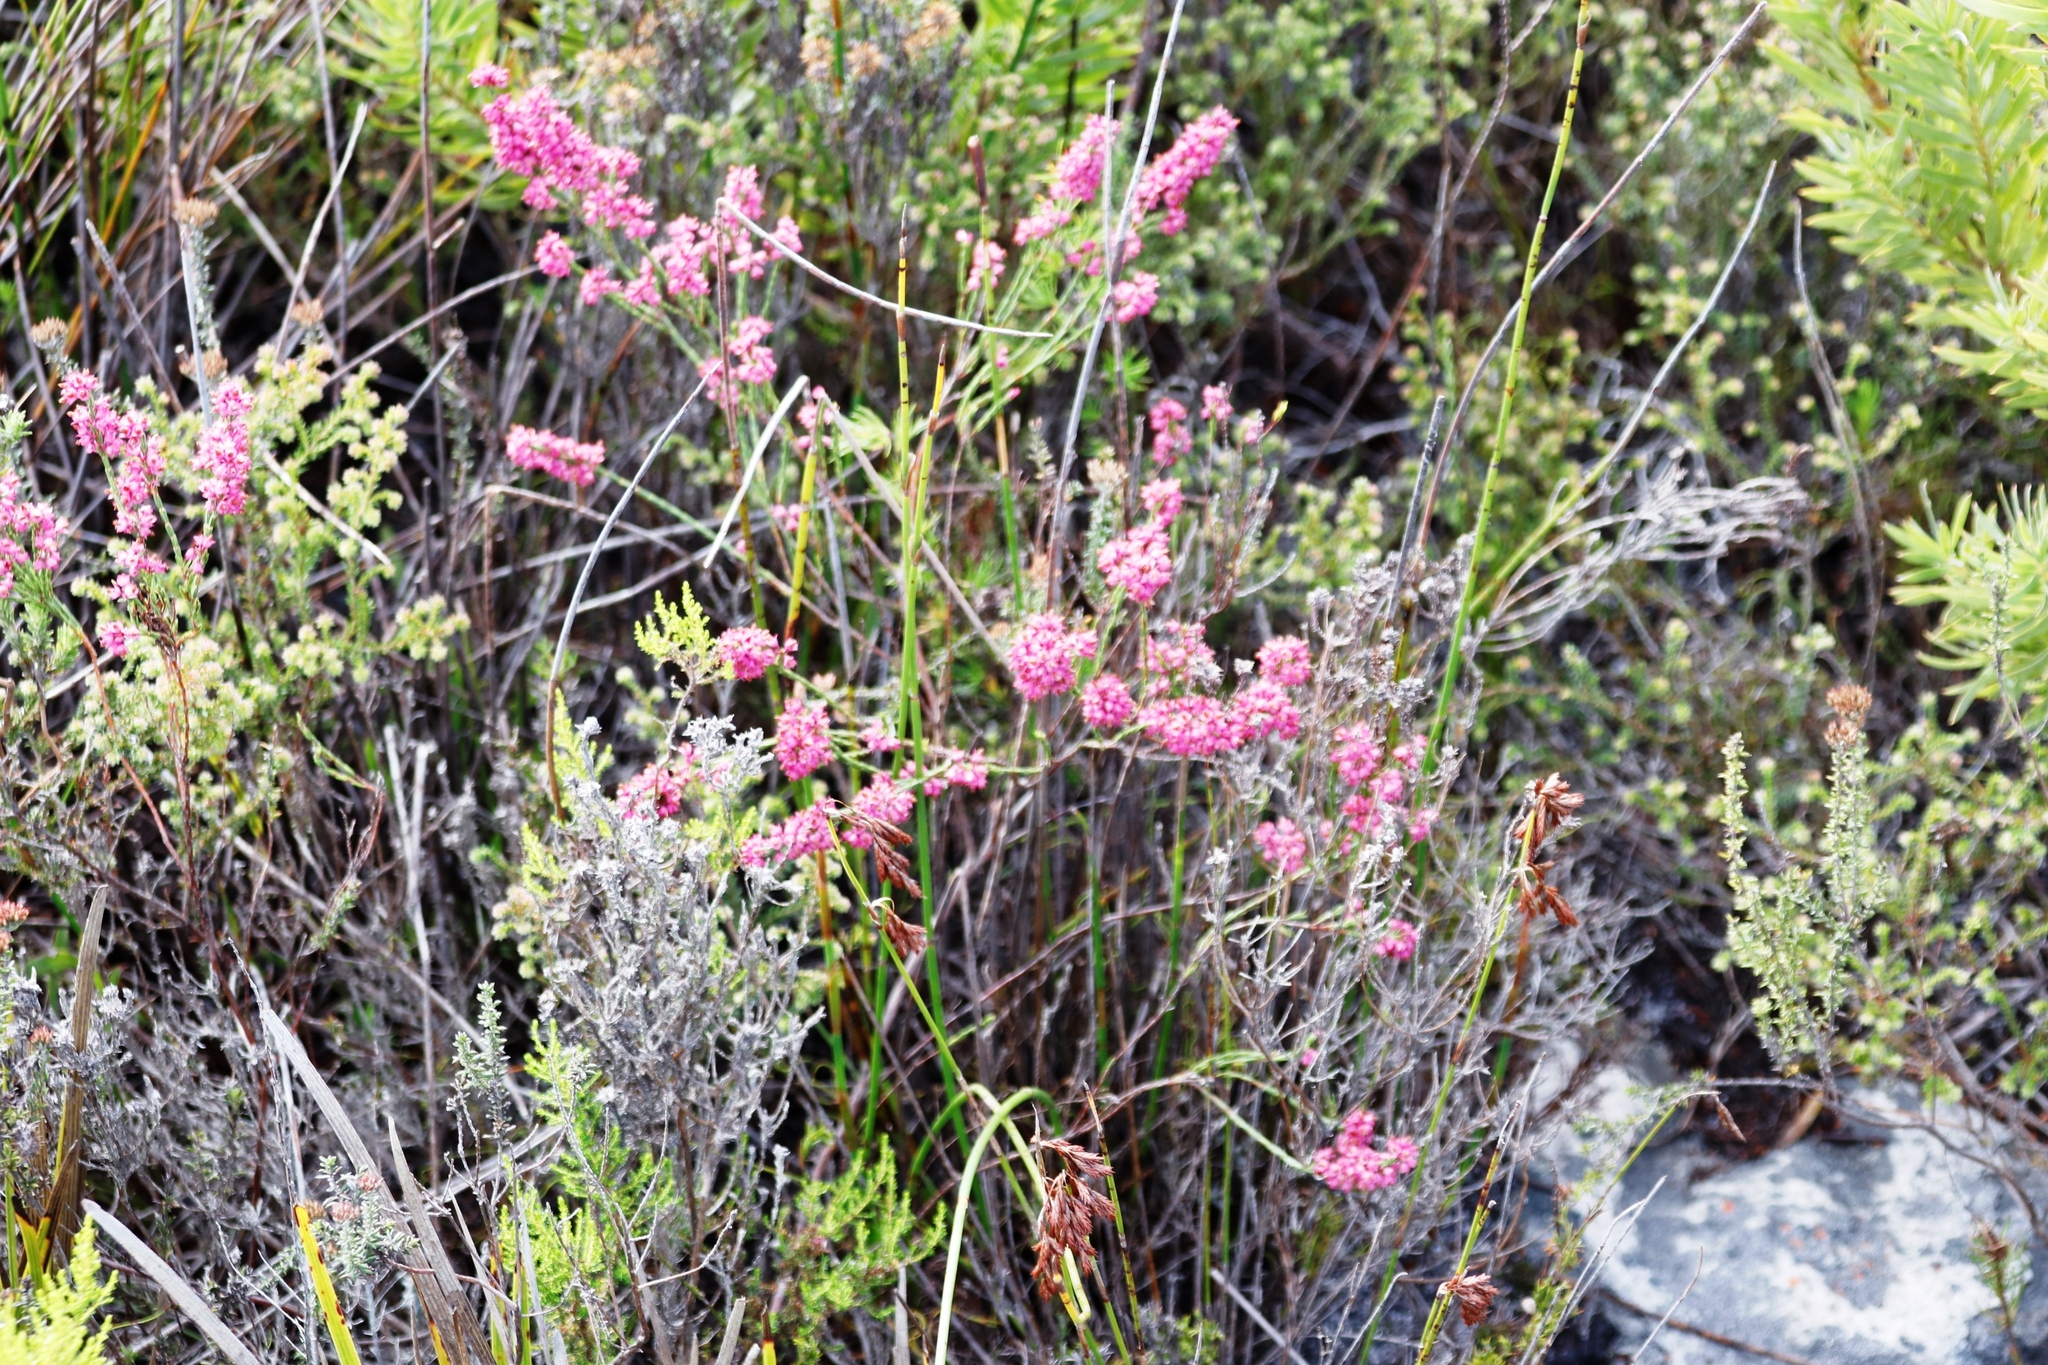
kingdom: Plantae
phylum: Tracheophyta
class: Magnoliopsida
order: Ericales
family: Ericaceae
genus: Erica
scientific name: Erica corifolia
